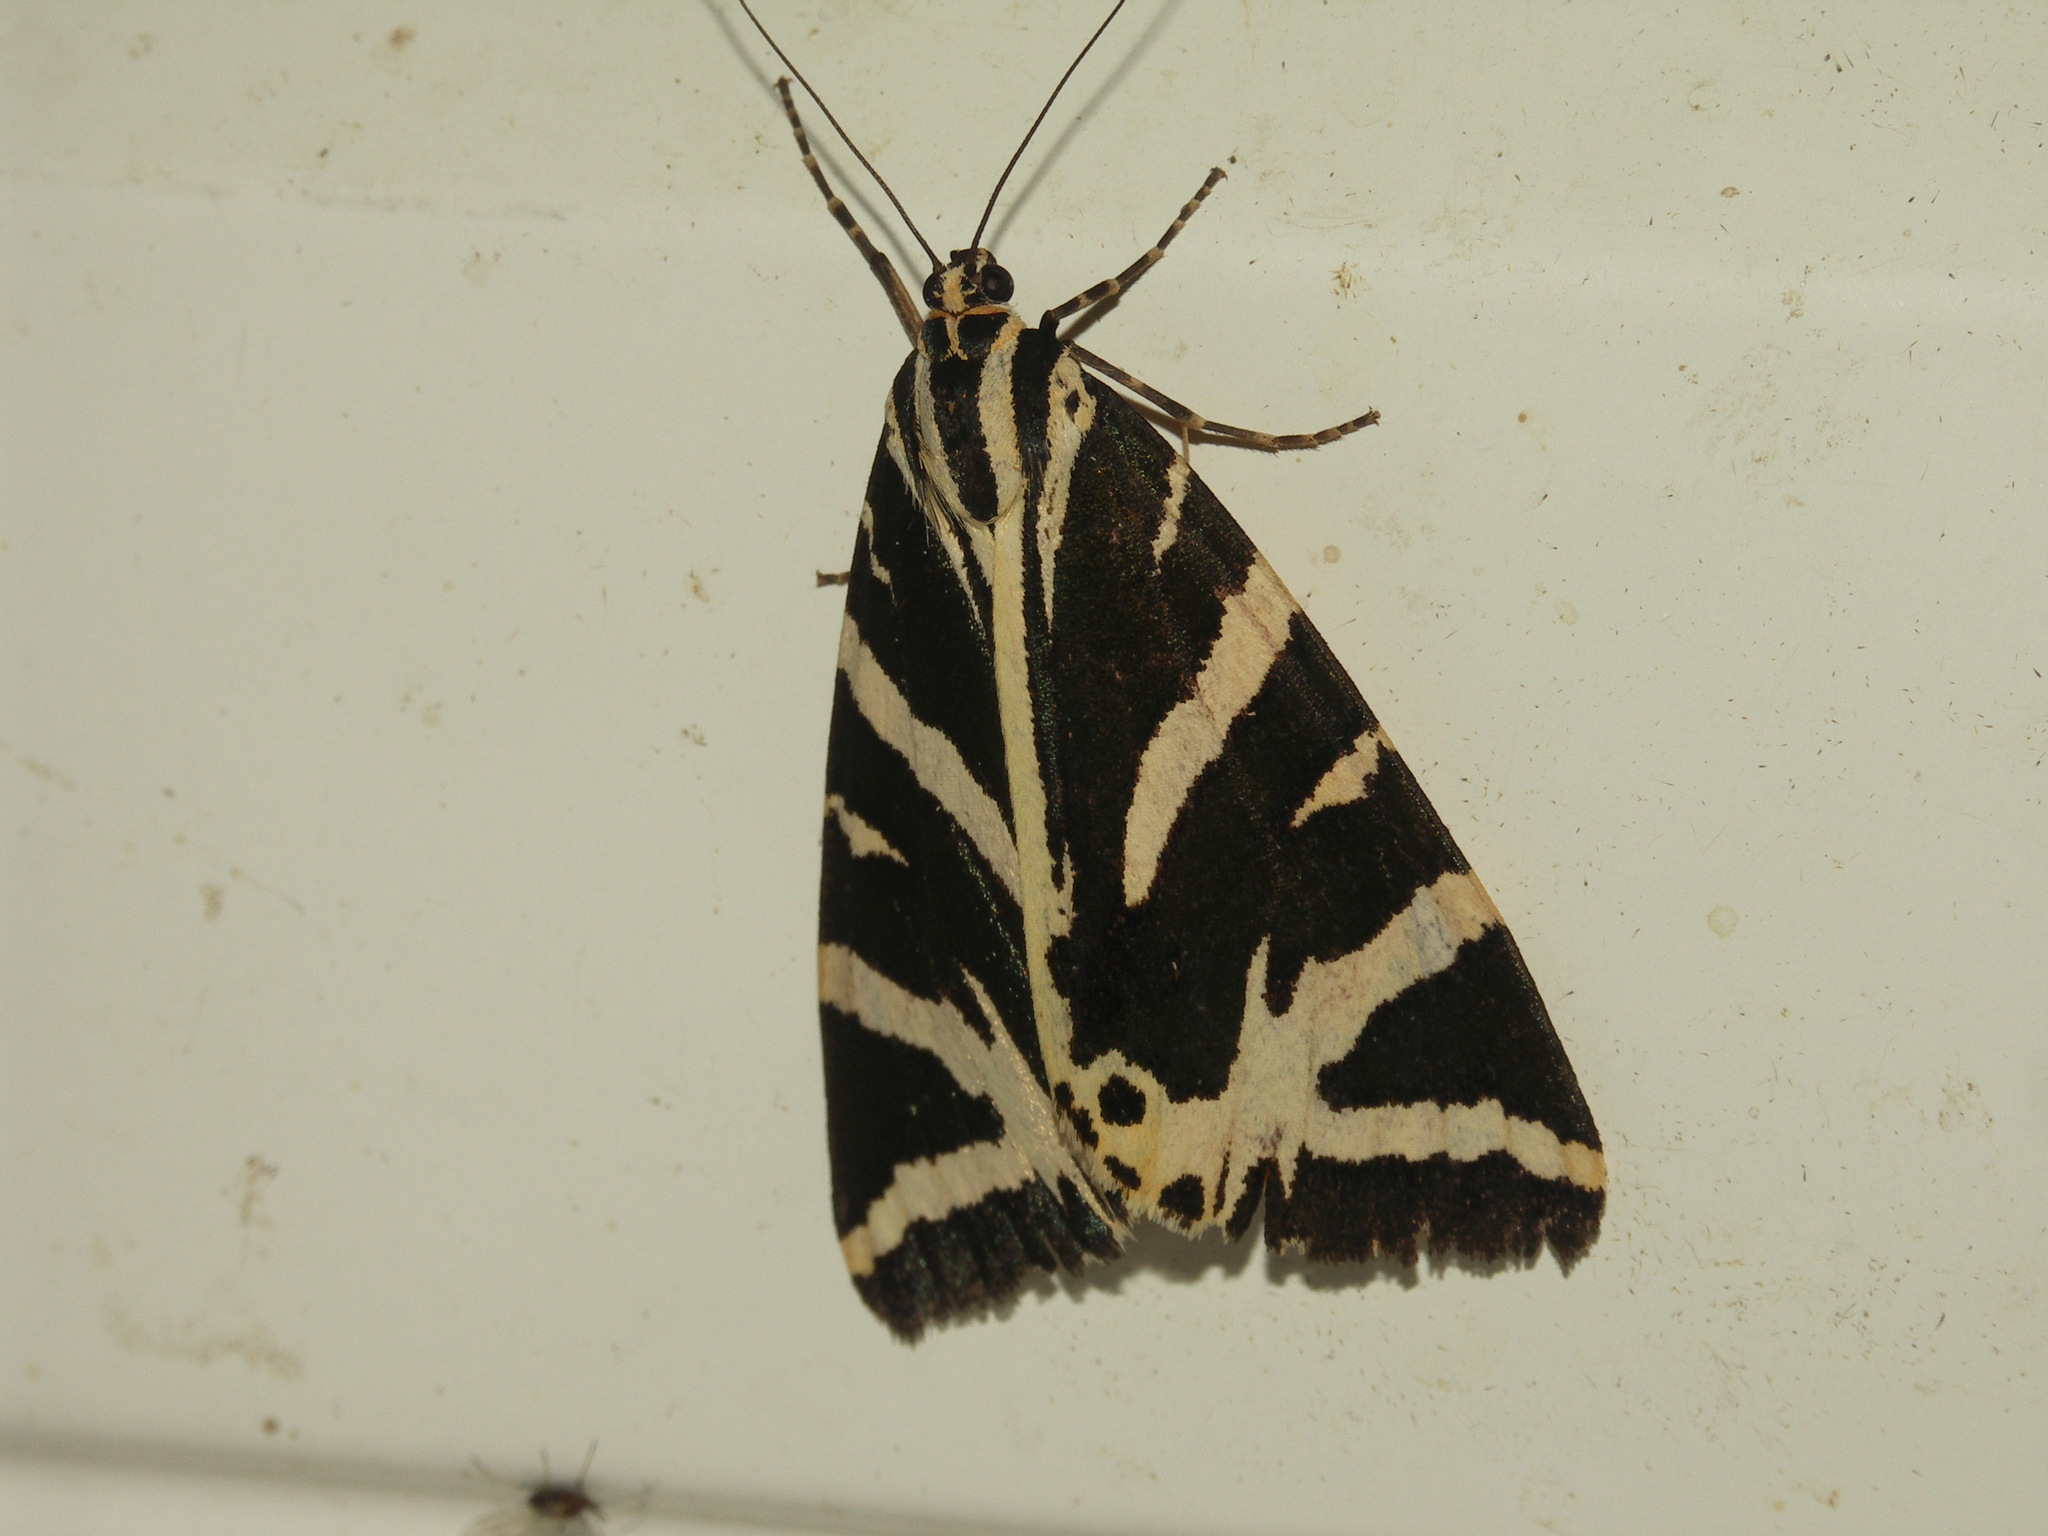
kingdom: Animalia
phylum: Arthropoda
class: Insecta
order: Lepidoptera
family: Erebidae
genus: Euplagia
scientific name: Euplagia quadripunctaria
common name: Jersey tiger
